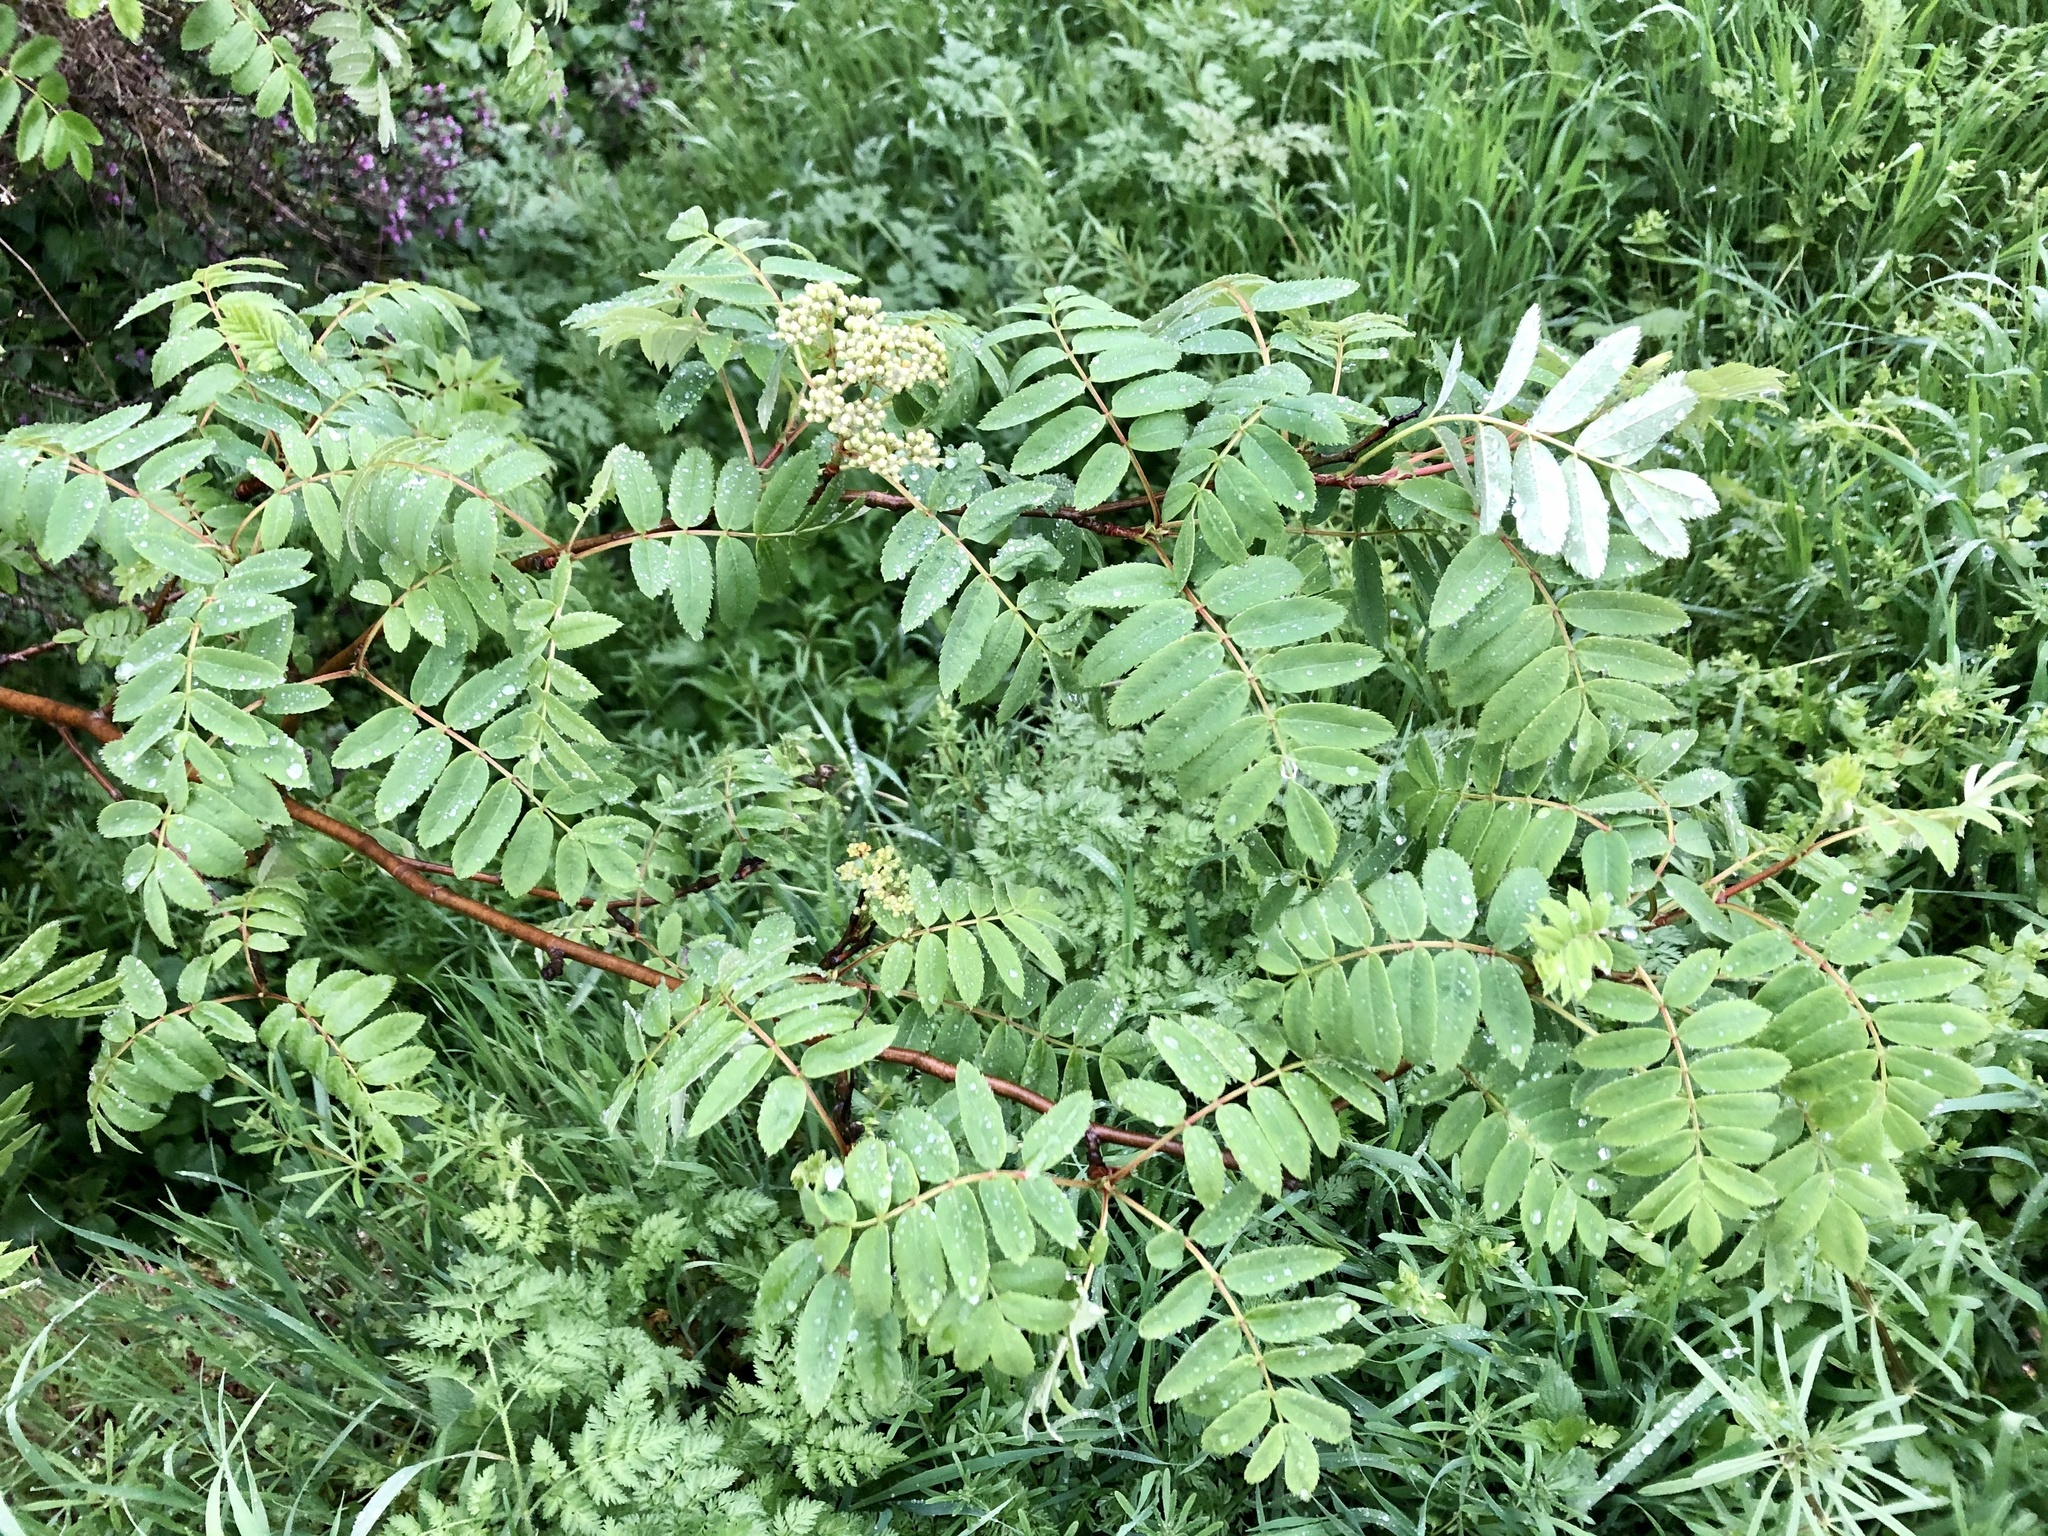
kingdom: Plantae
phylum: Tracheophyta
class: Magnoliopsida
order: Rosales
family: Rosaceae
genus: Sorbus
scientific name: Sorbus aucuparia
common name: Rowan
